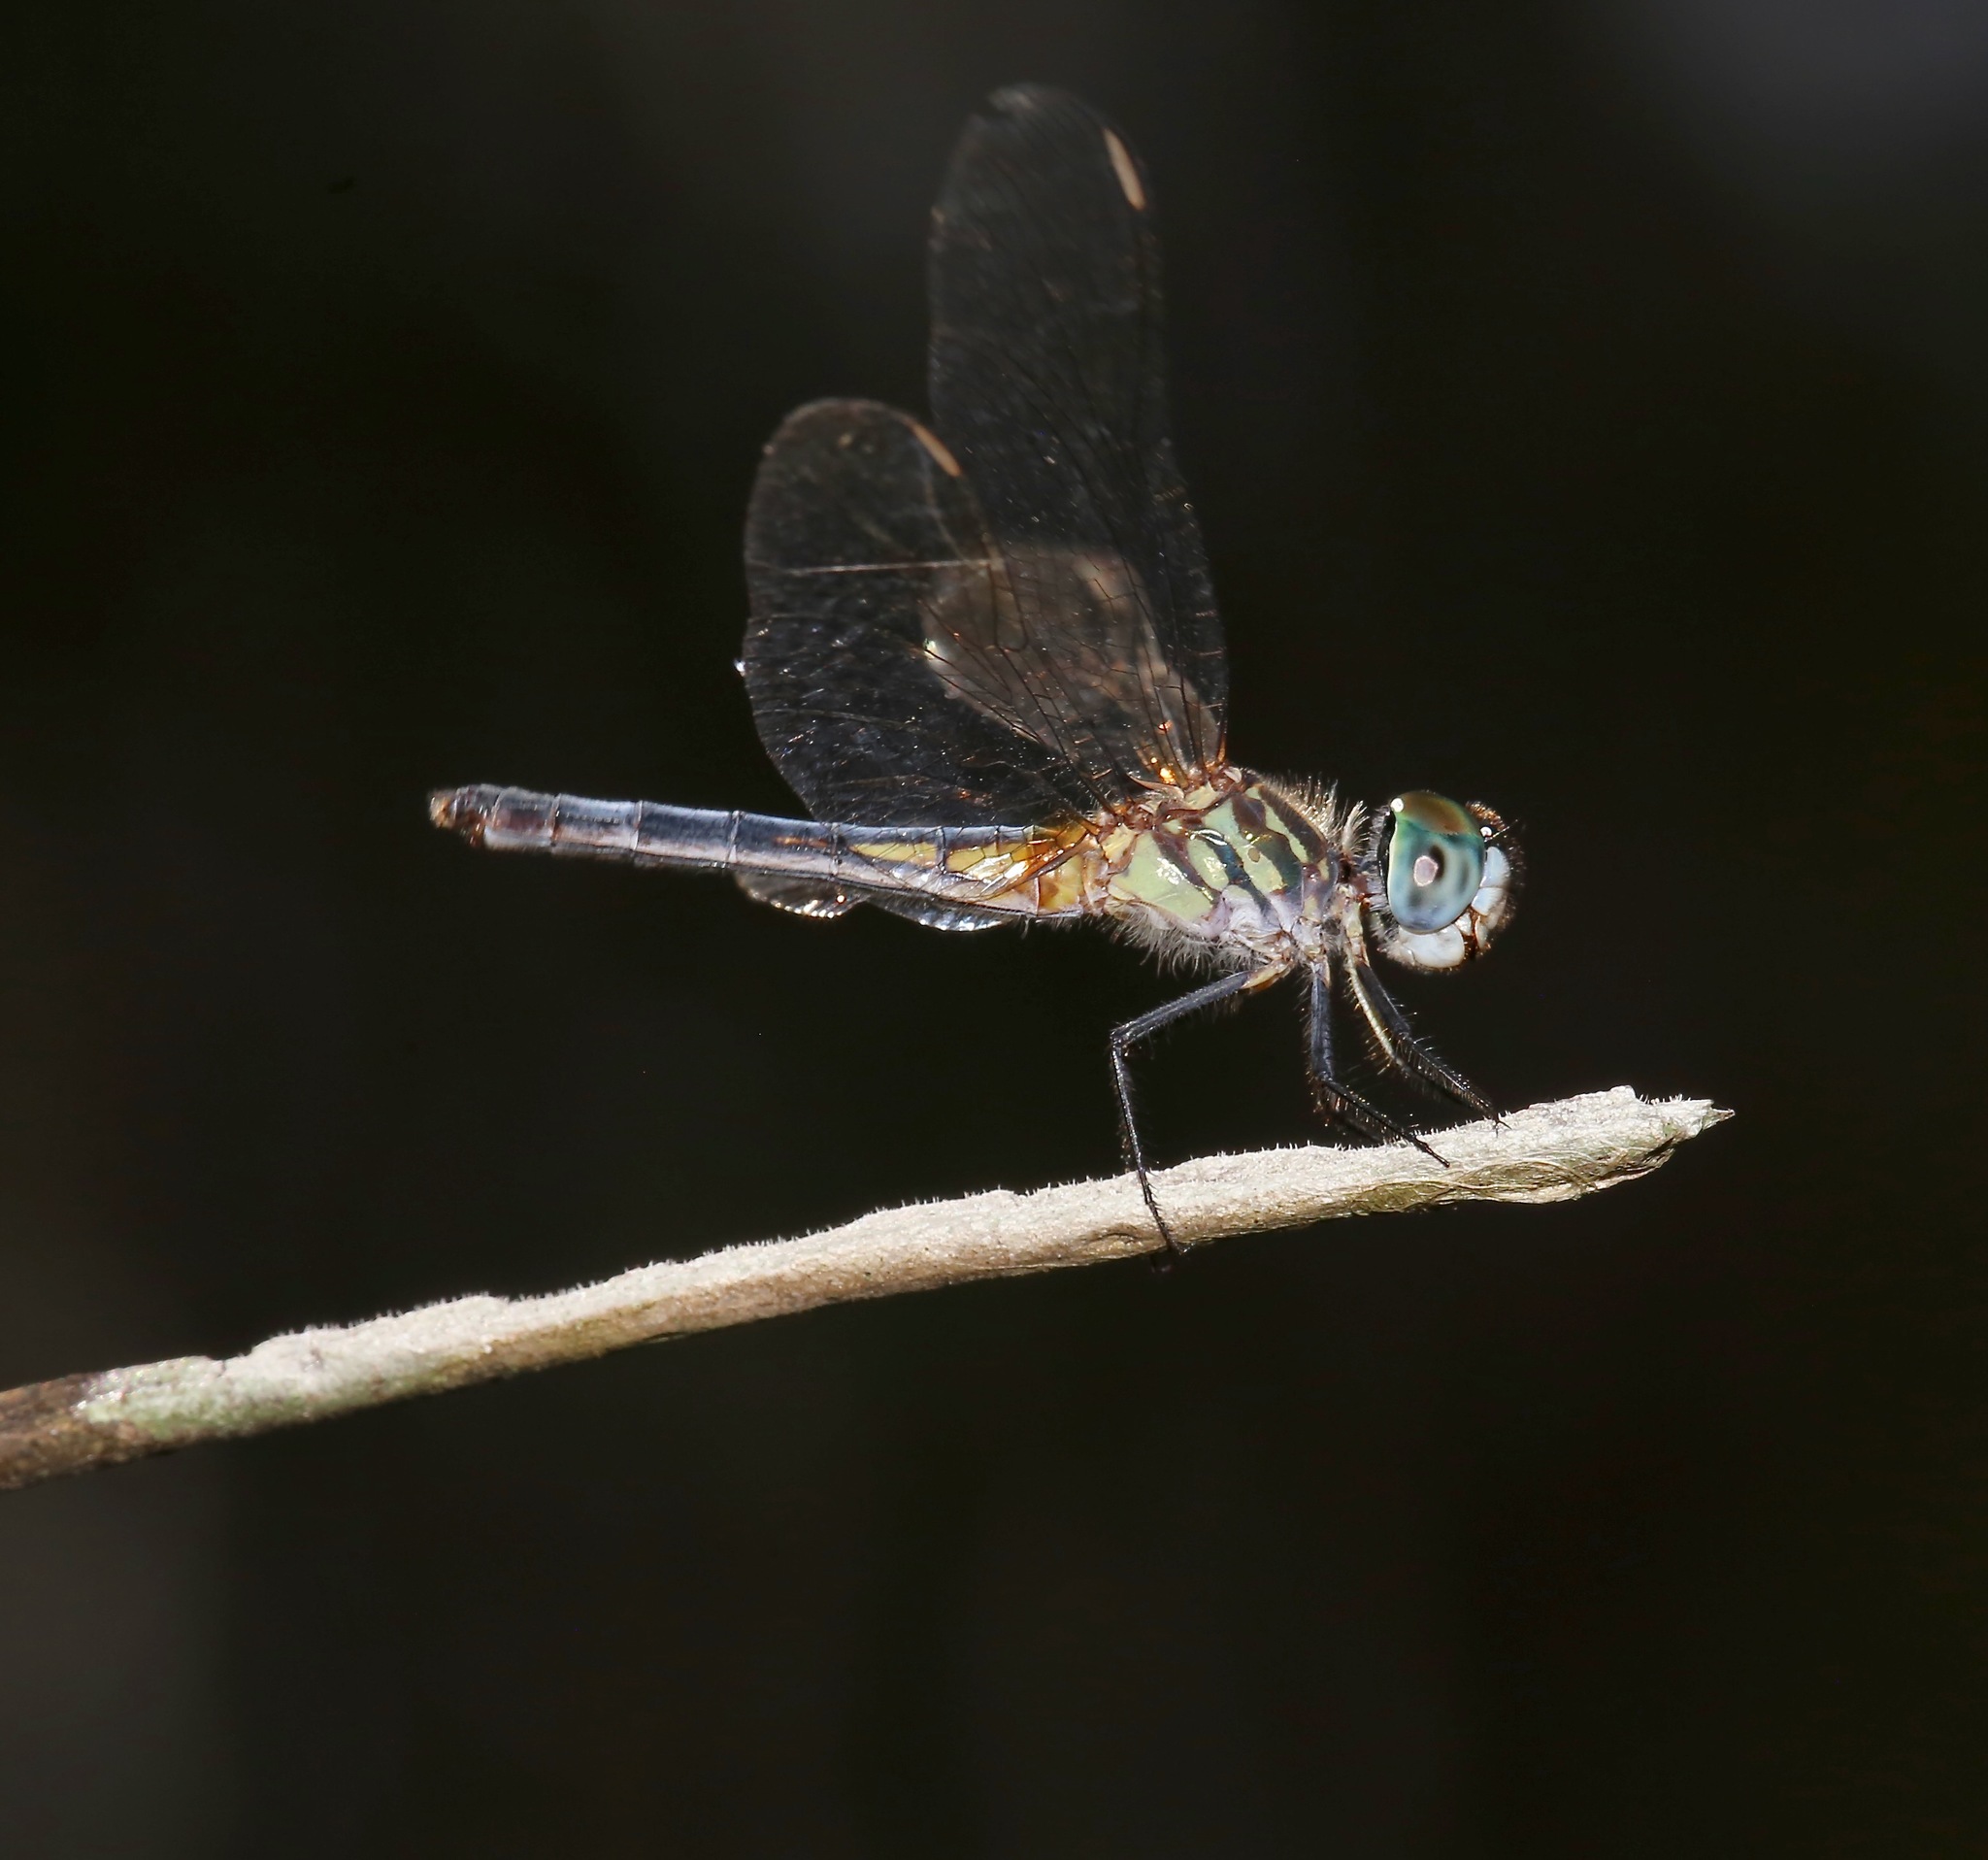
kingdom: Animalia
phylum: Arthropoda
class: Insecta
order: Odonata
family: Libellulidae
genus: Pachydiplax
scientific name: Pachydiplax longipennis
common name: Blue dasher
